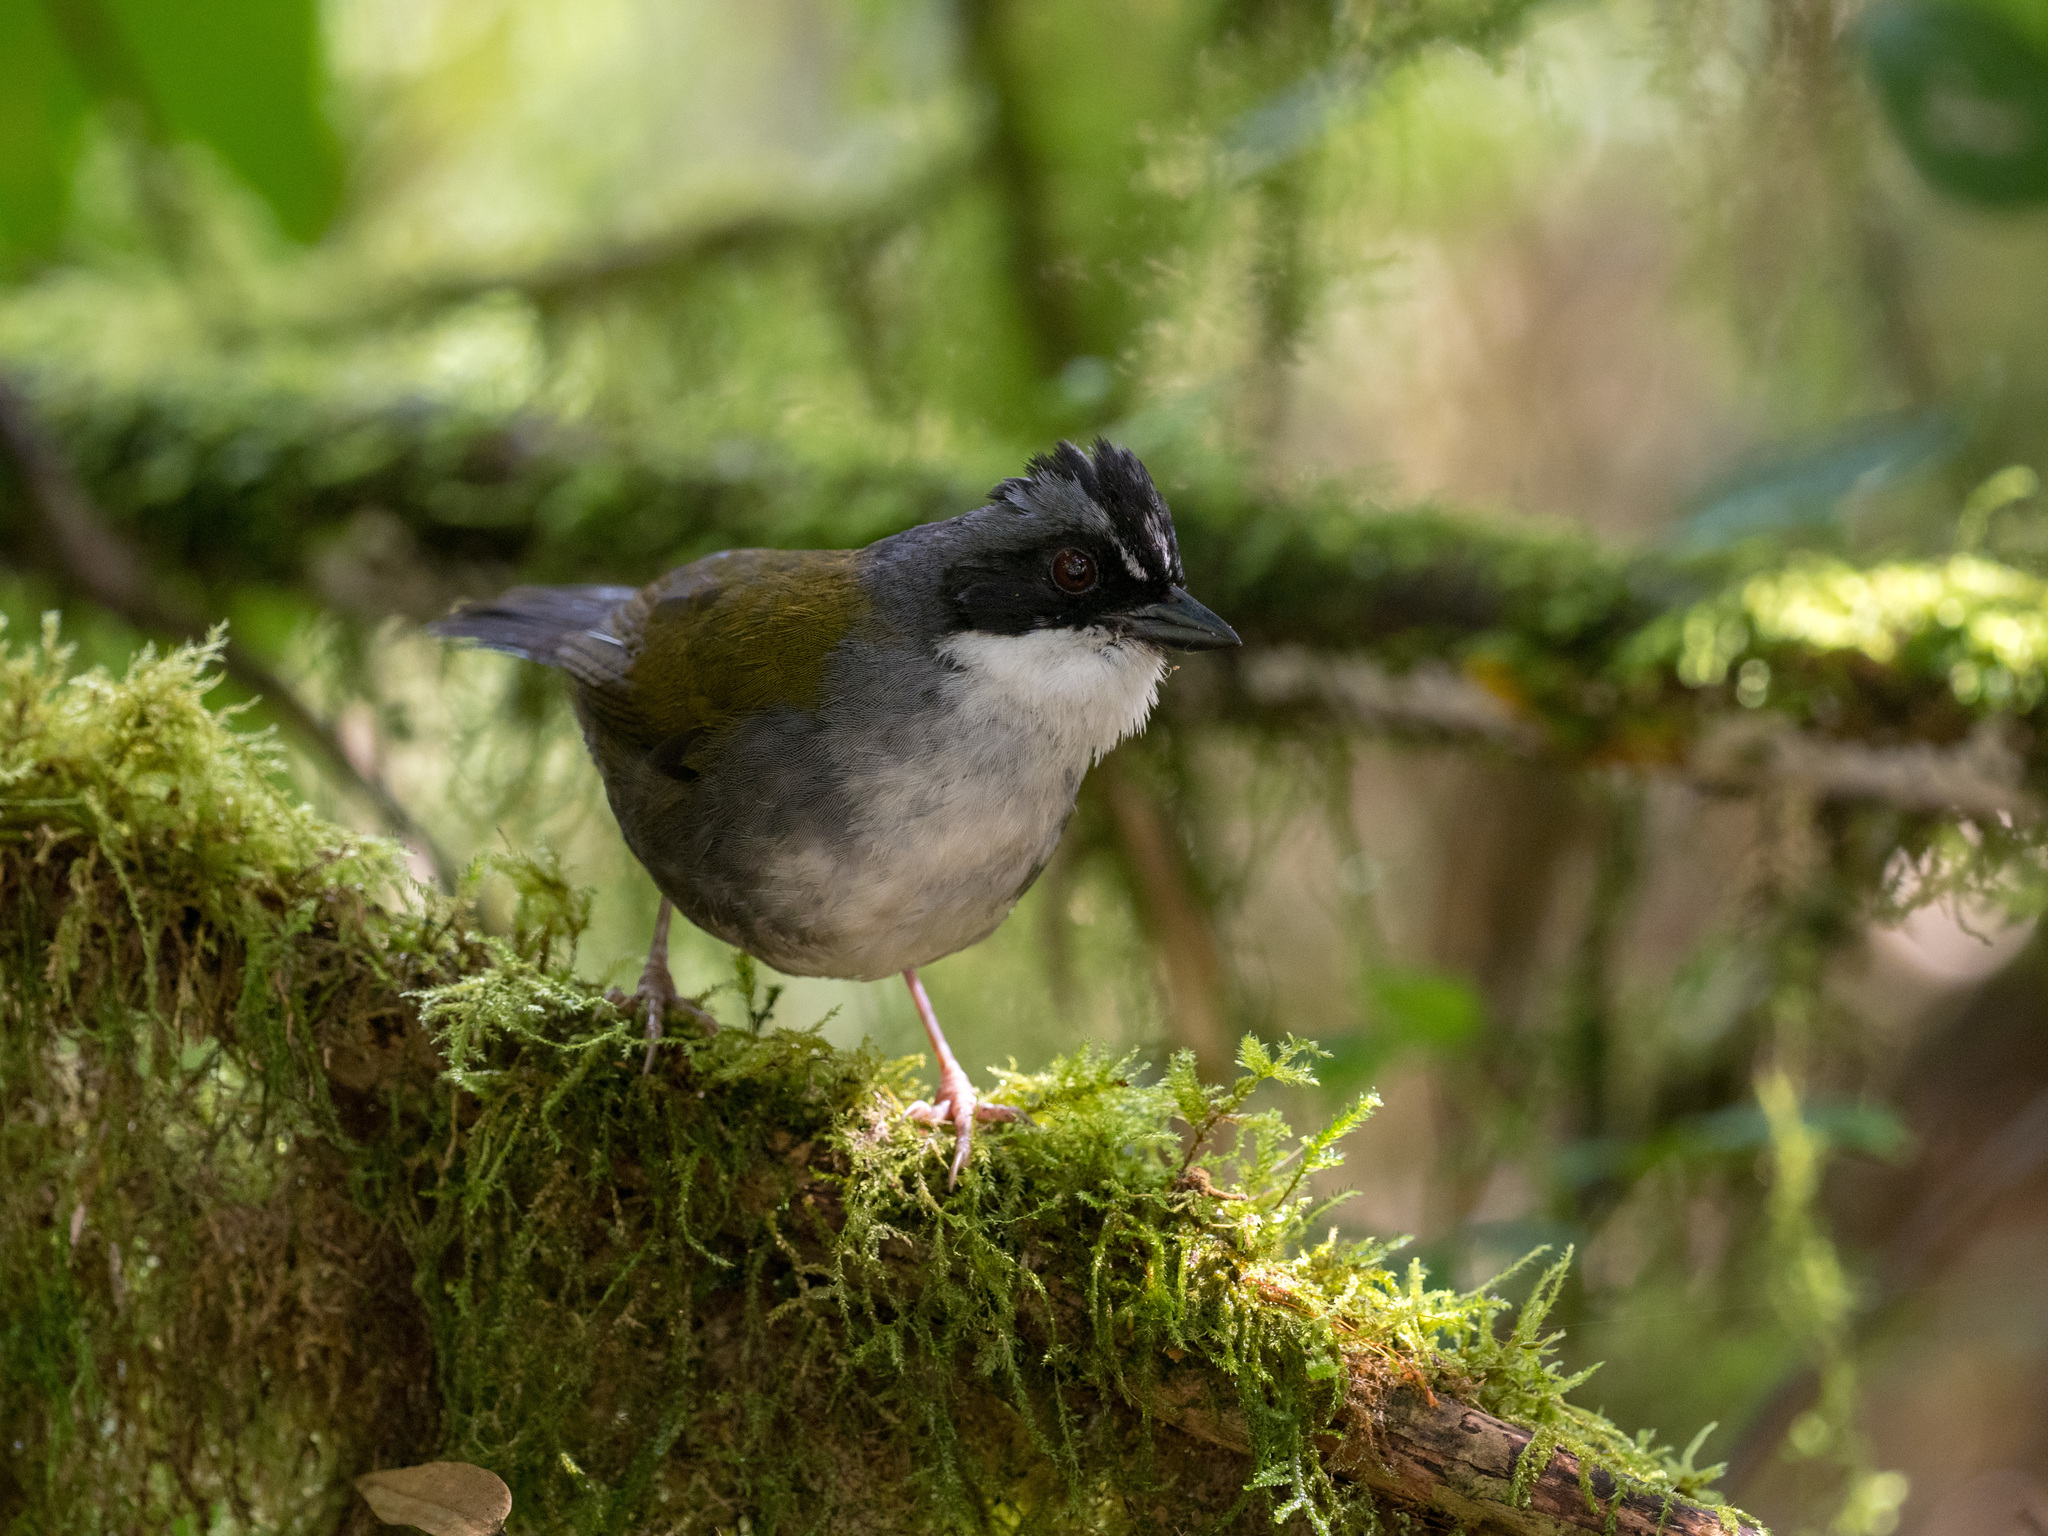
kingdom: Animalia
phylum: Chordata
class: Aves
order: Passeriformes
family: Passerellidae
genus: Arremon
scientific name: Arremon assimilis
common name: Grey-browed brushfinch
